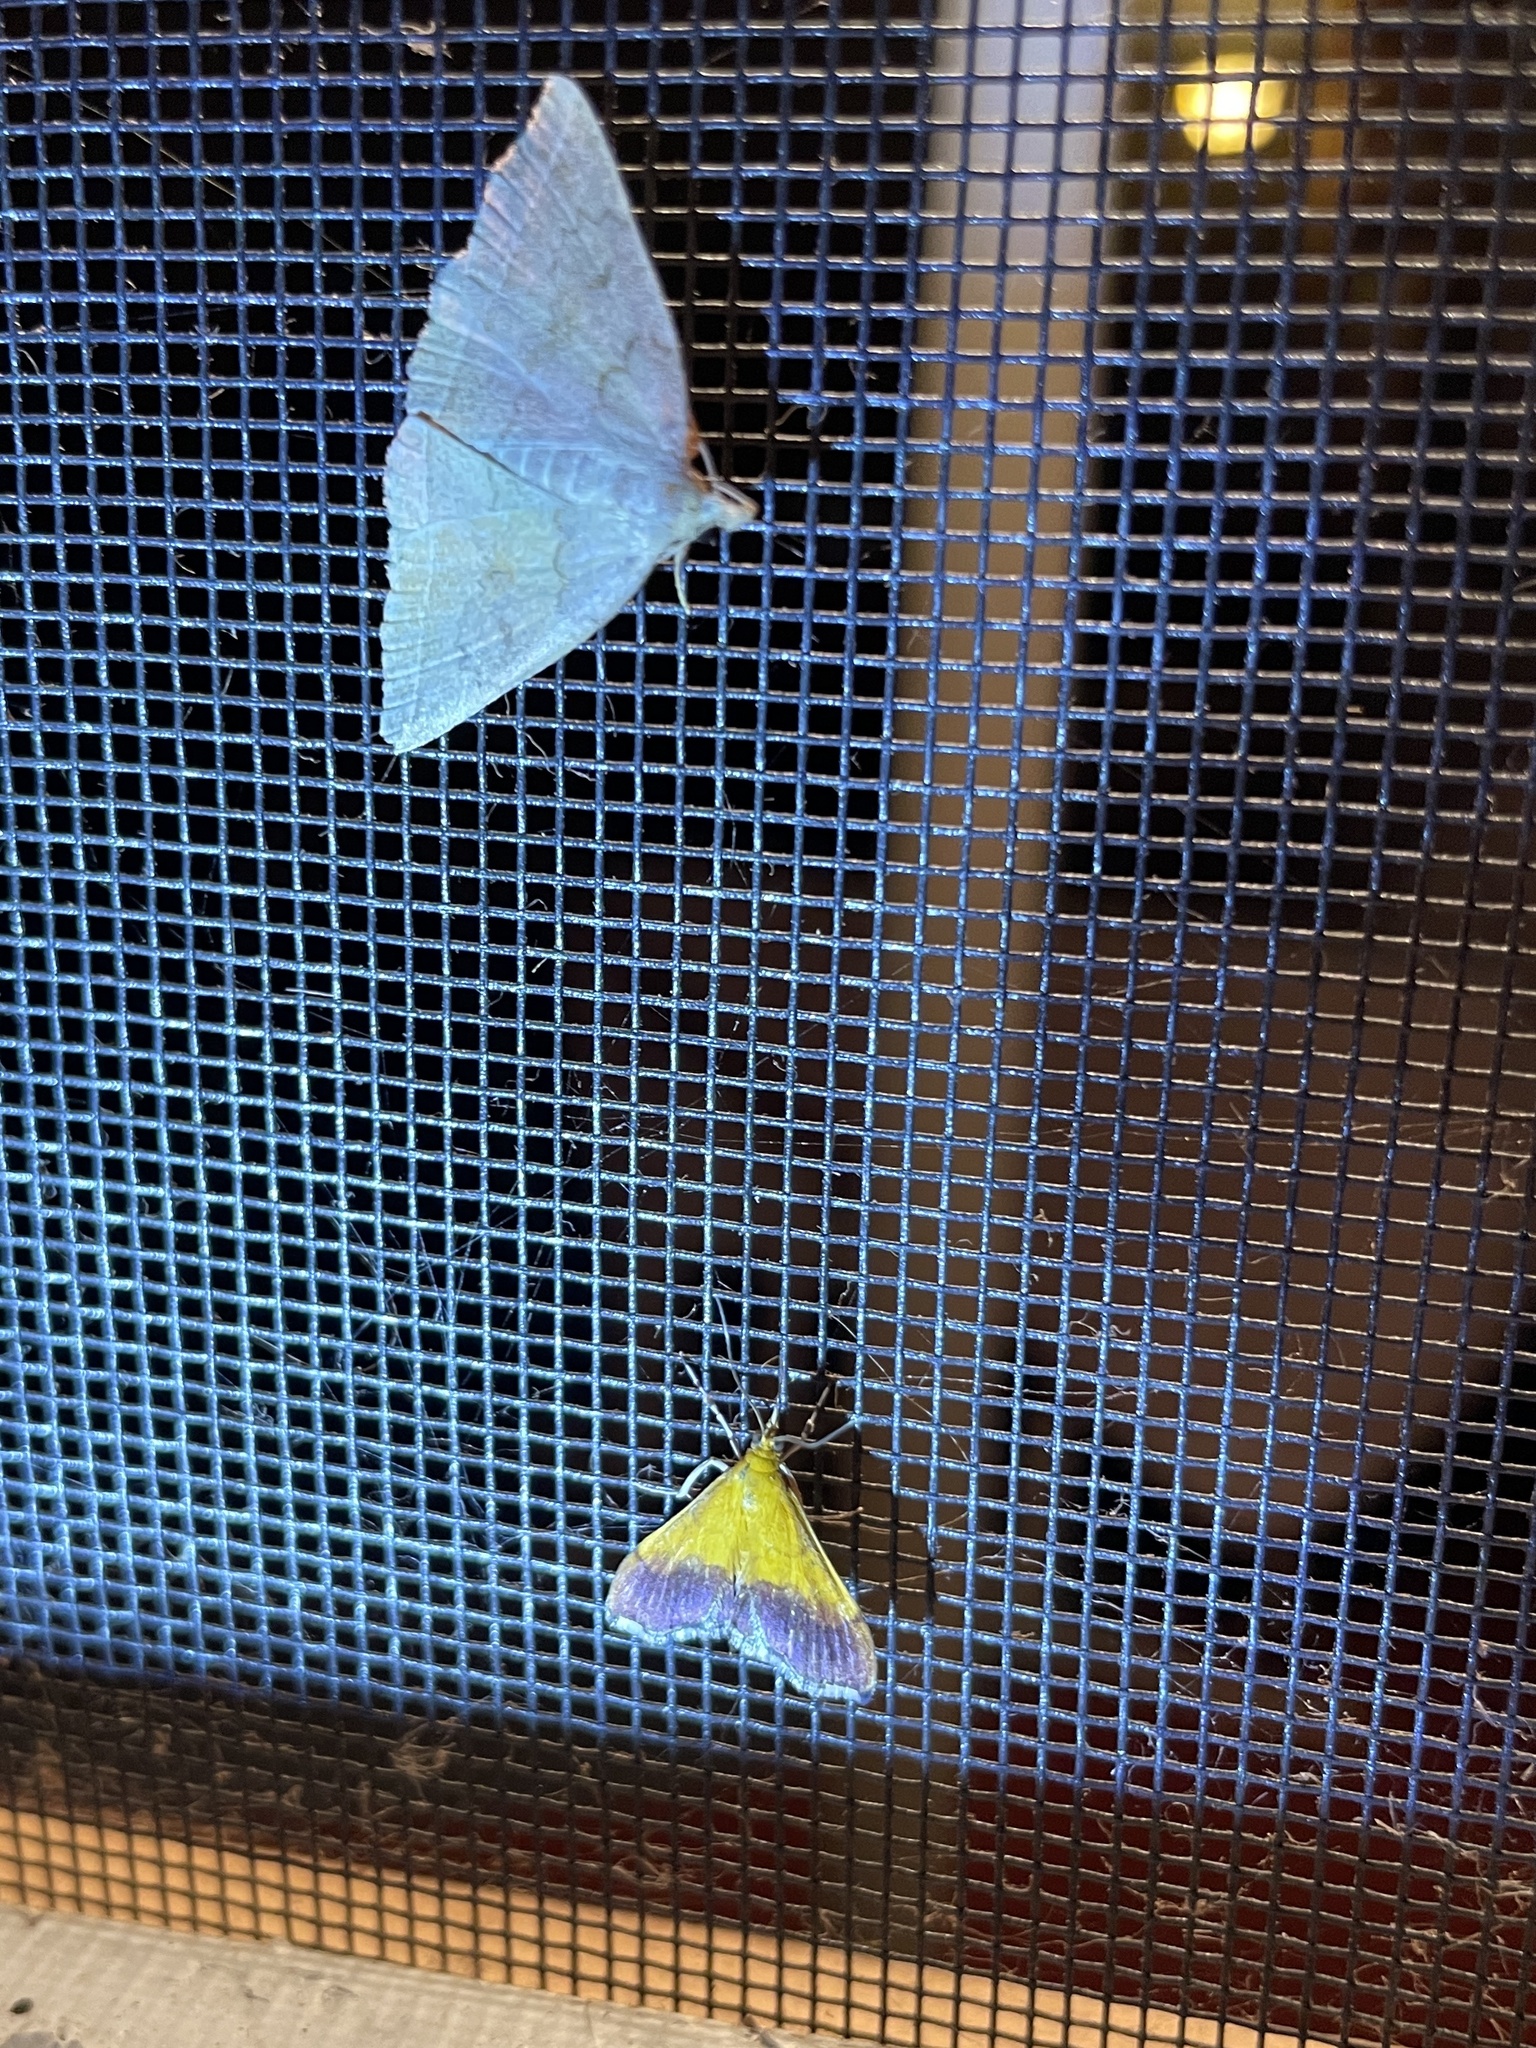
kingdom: Animalia
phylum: Arthropoda
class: Insecta
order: Lepidoptera
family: Crambidae
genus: Pyrausta
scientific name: Pyrausta bicoloralis
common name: Bicolored pyrausta moth
